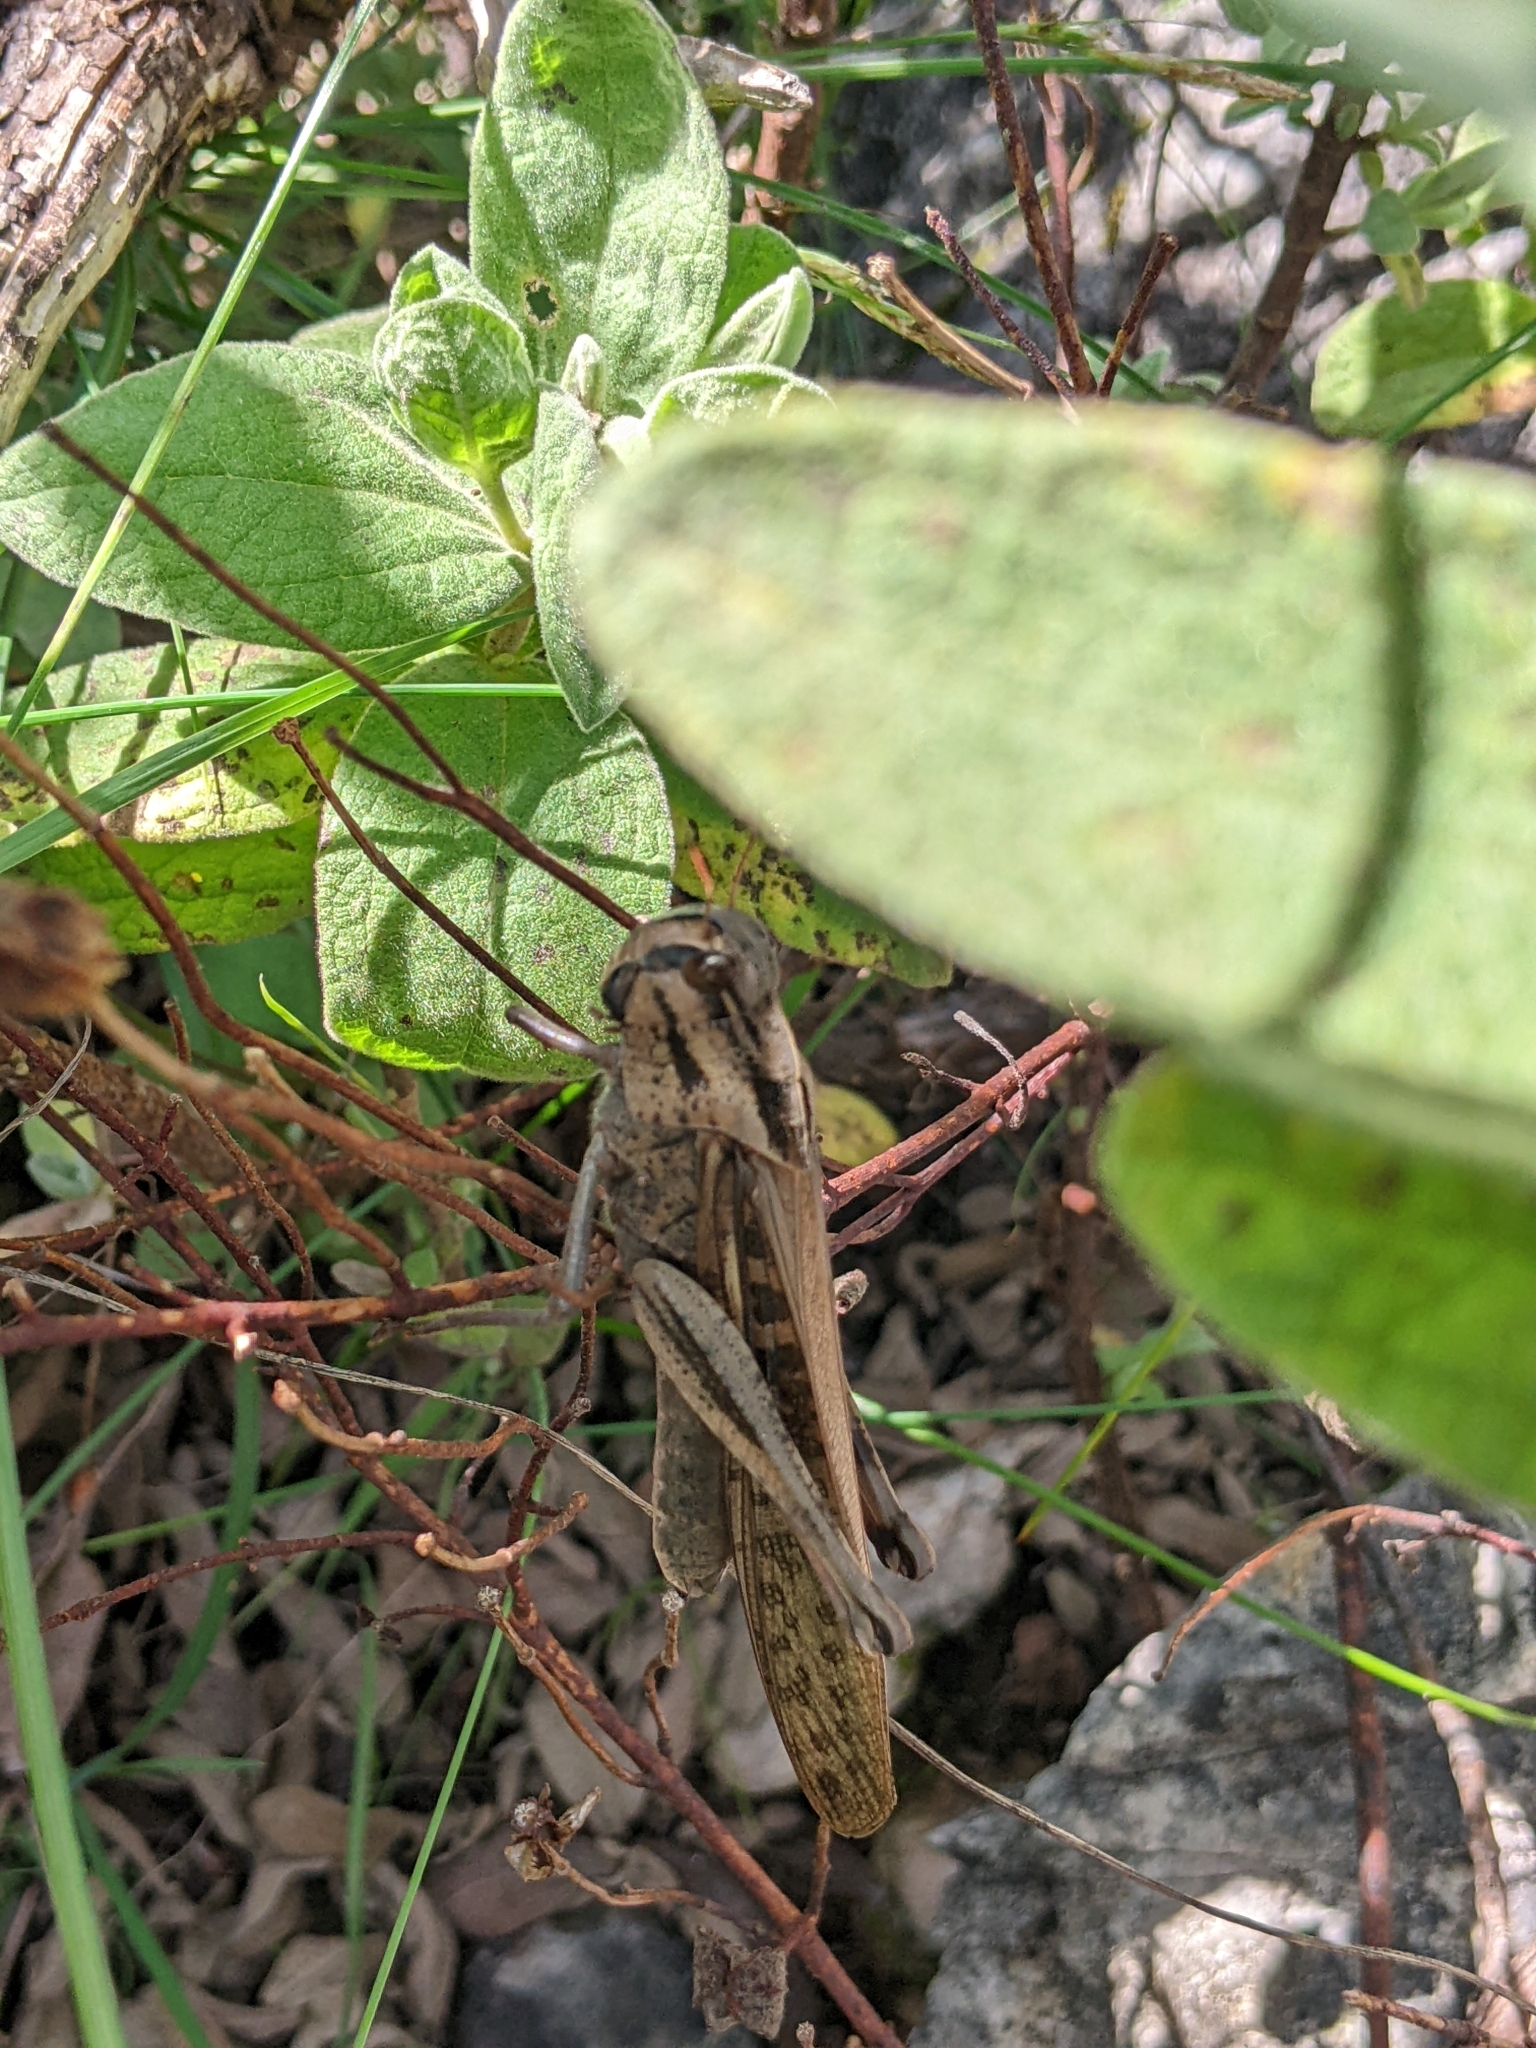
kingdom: Animalia
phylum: Arthropoda
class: Insecta
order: Orthoptera
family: Acrididae
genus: Locusta
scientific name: Locusta migratoria
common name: Migratory locust
